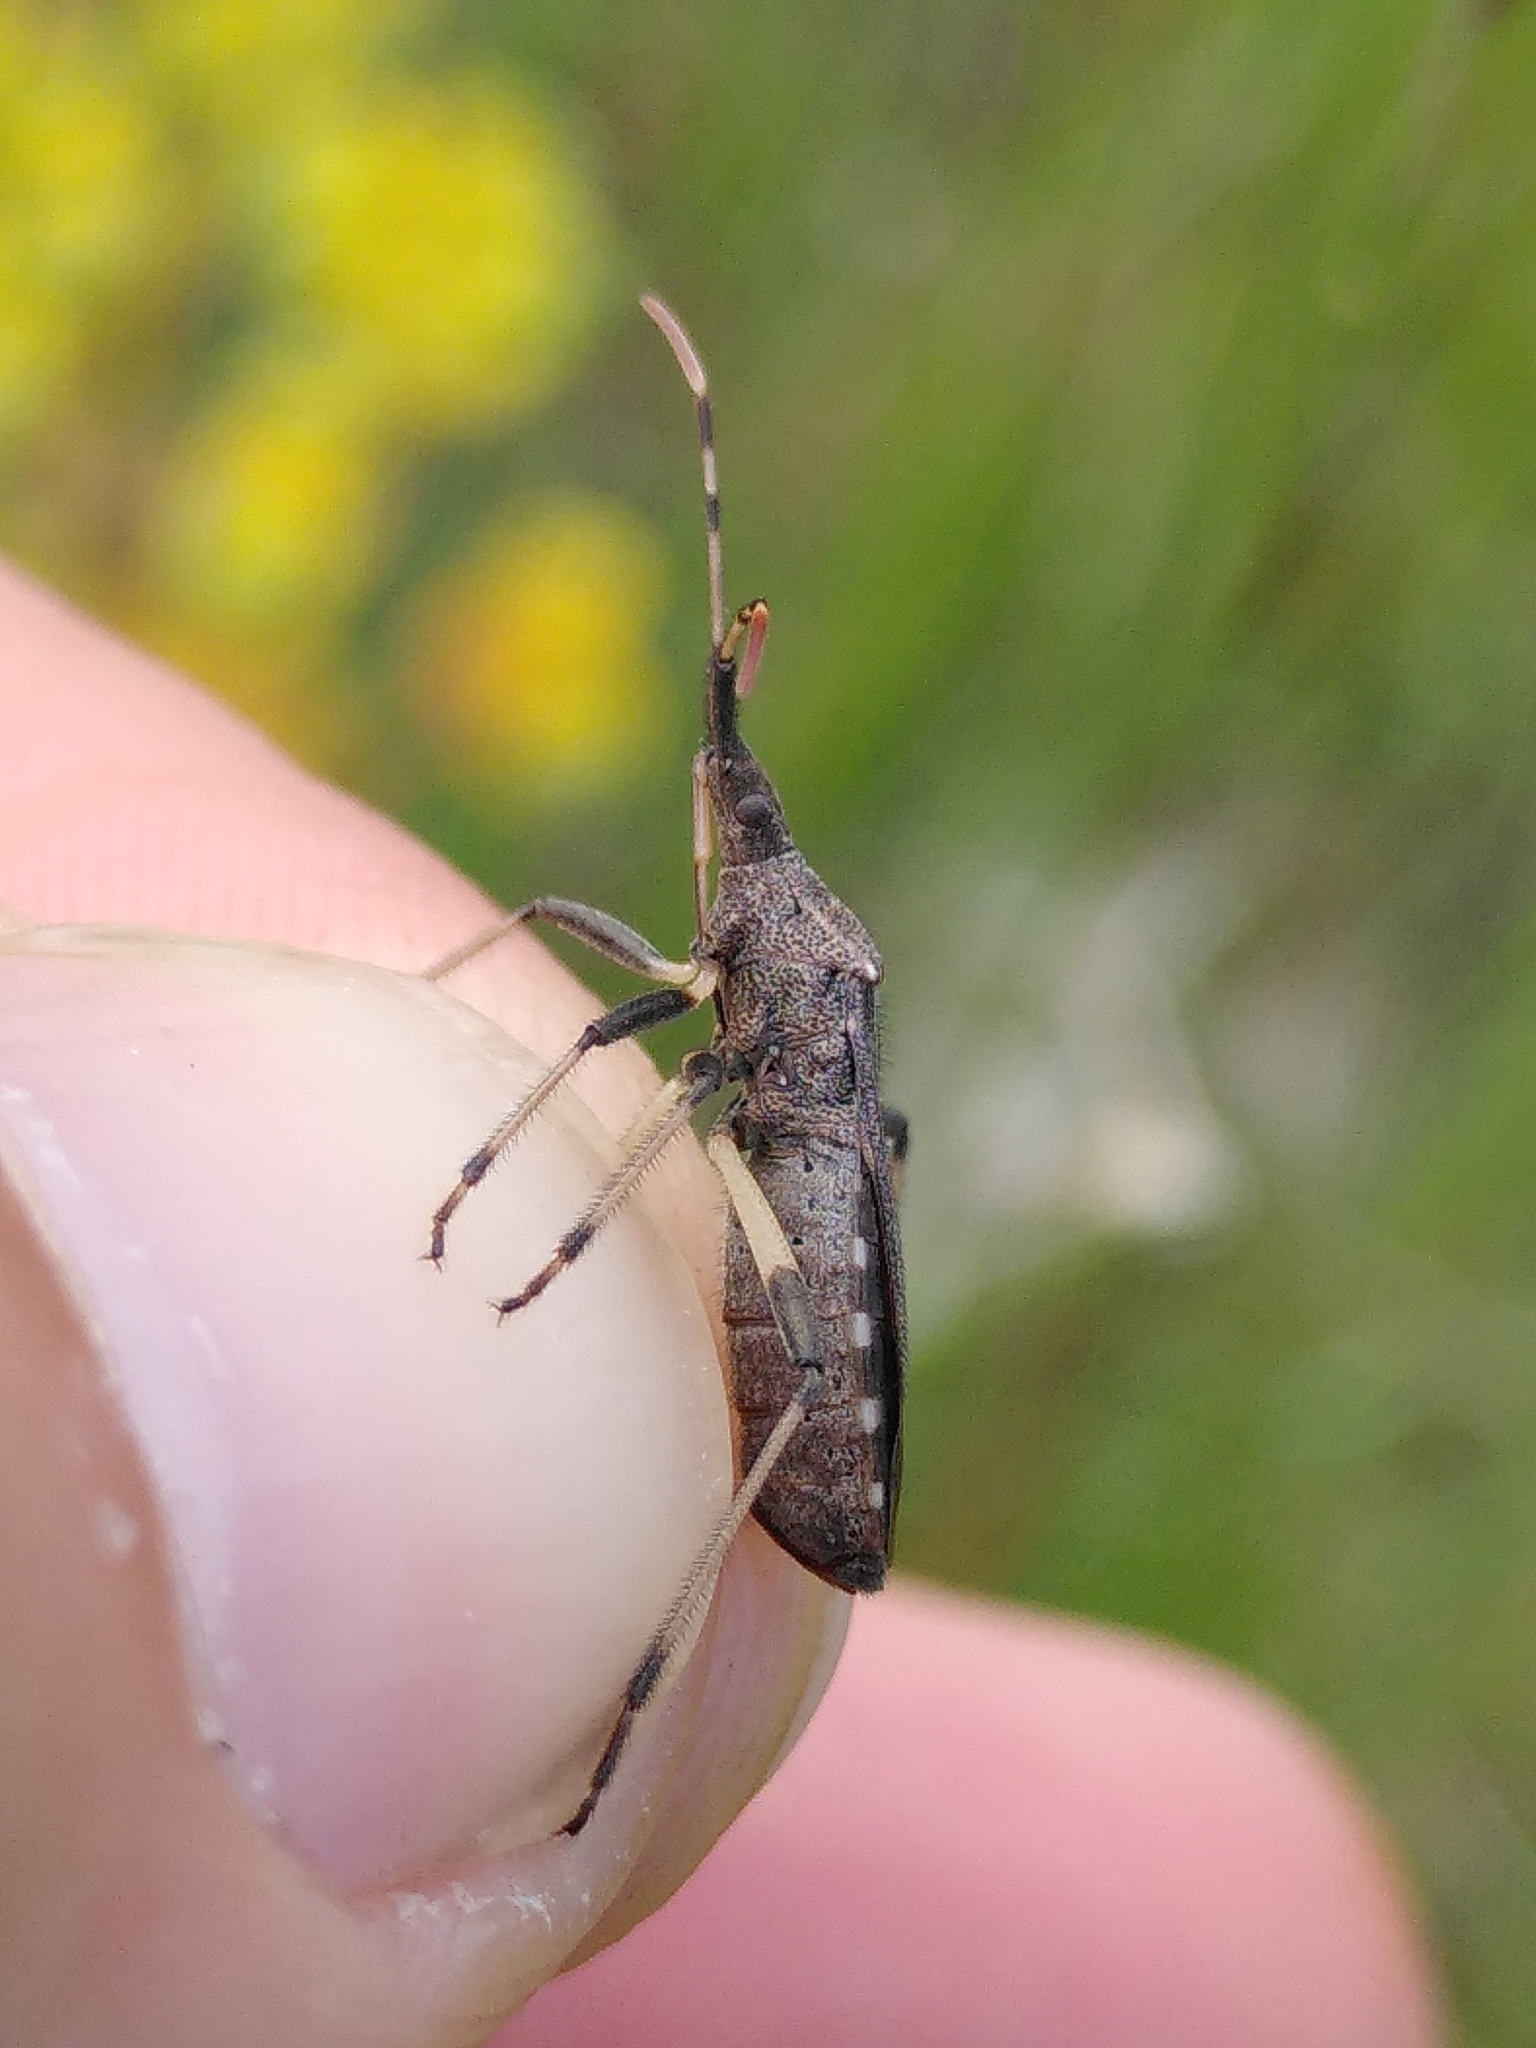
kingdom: Animalia
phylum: Arthropoda
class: Insecta
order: Hemiptera
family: Stenocephalidae
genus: Dicranocephalus
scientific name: Dicranocephalus albipes
